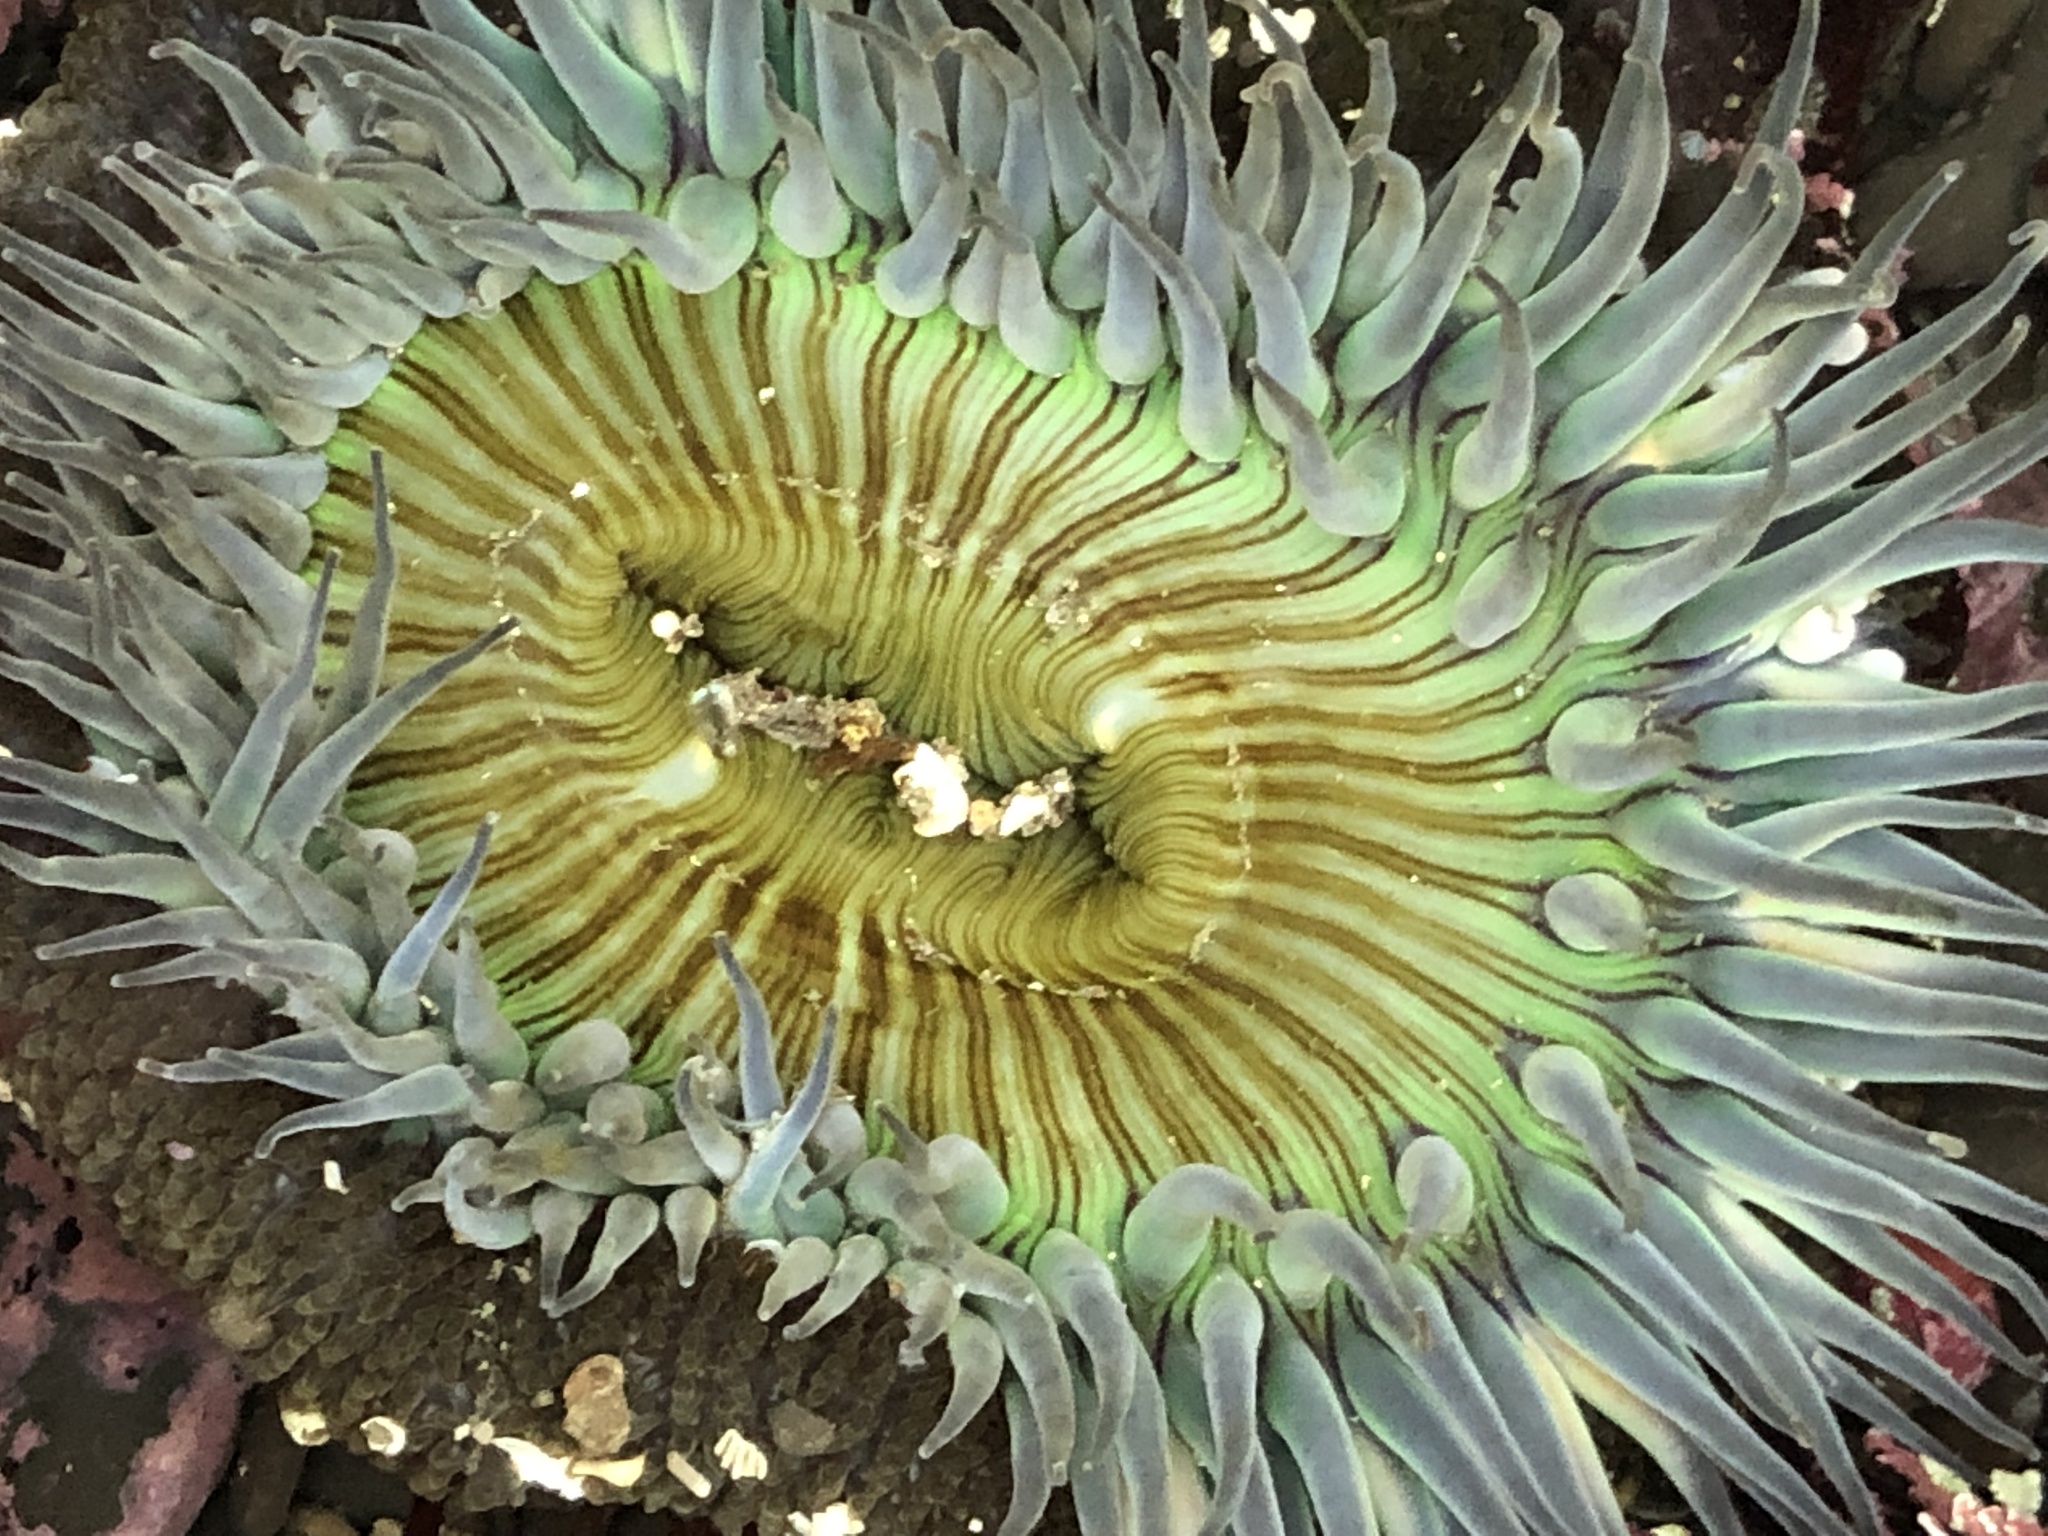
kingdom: Animalia
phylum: Cnidaria
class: Anthozoa
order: Actiniaria
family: Actiniidae
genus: Anthopleura
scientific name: Anthopleura sola
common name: Sun anemone
